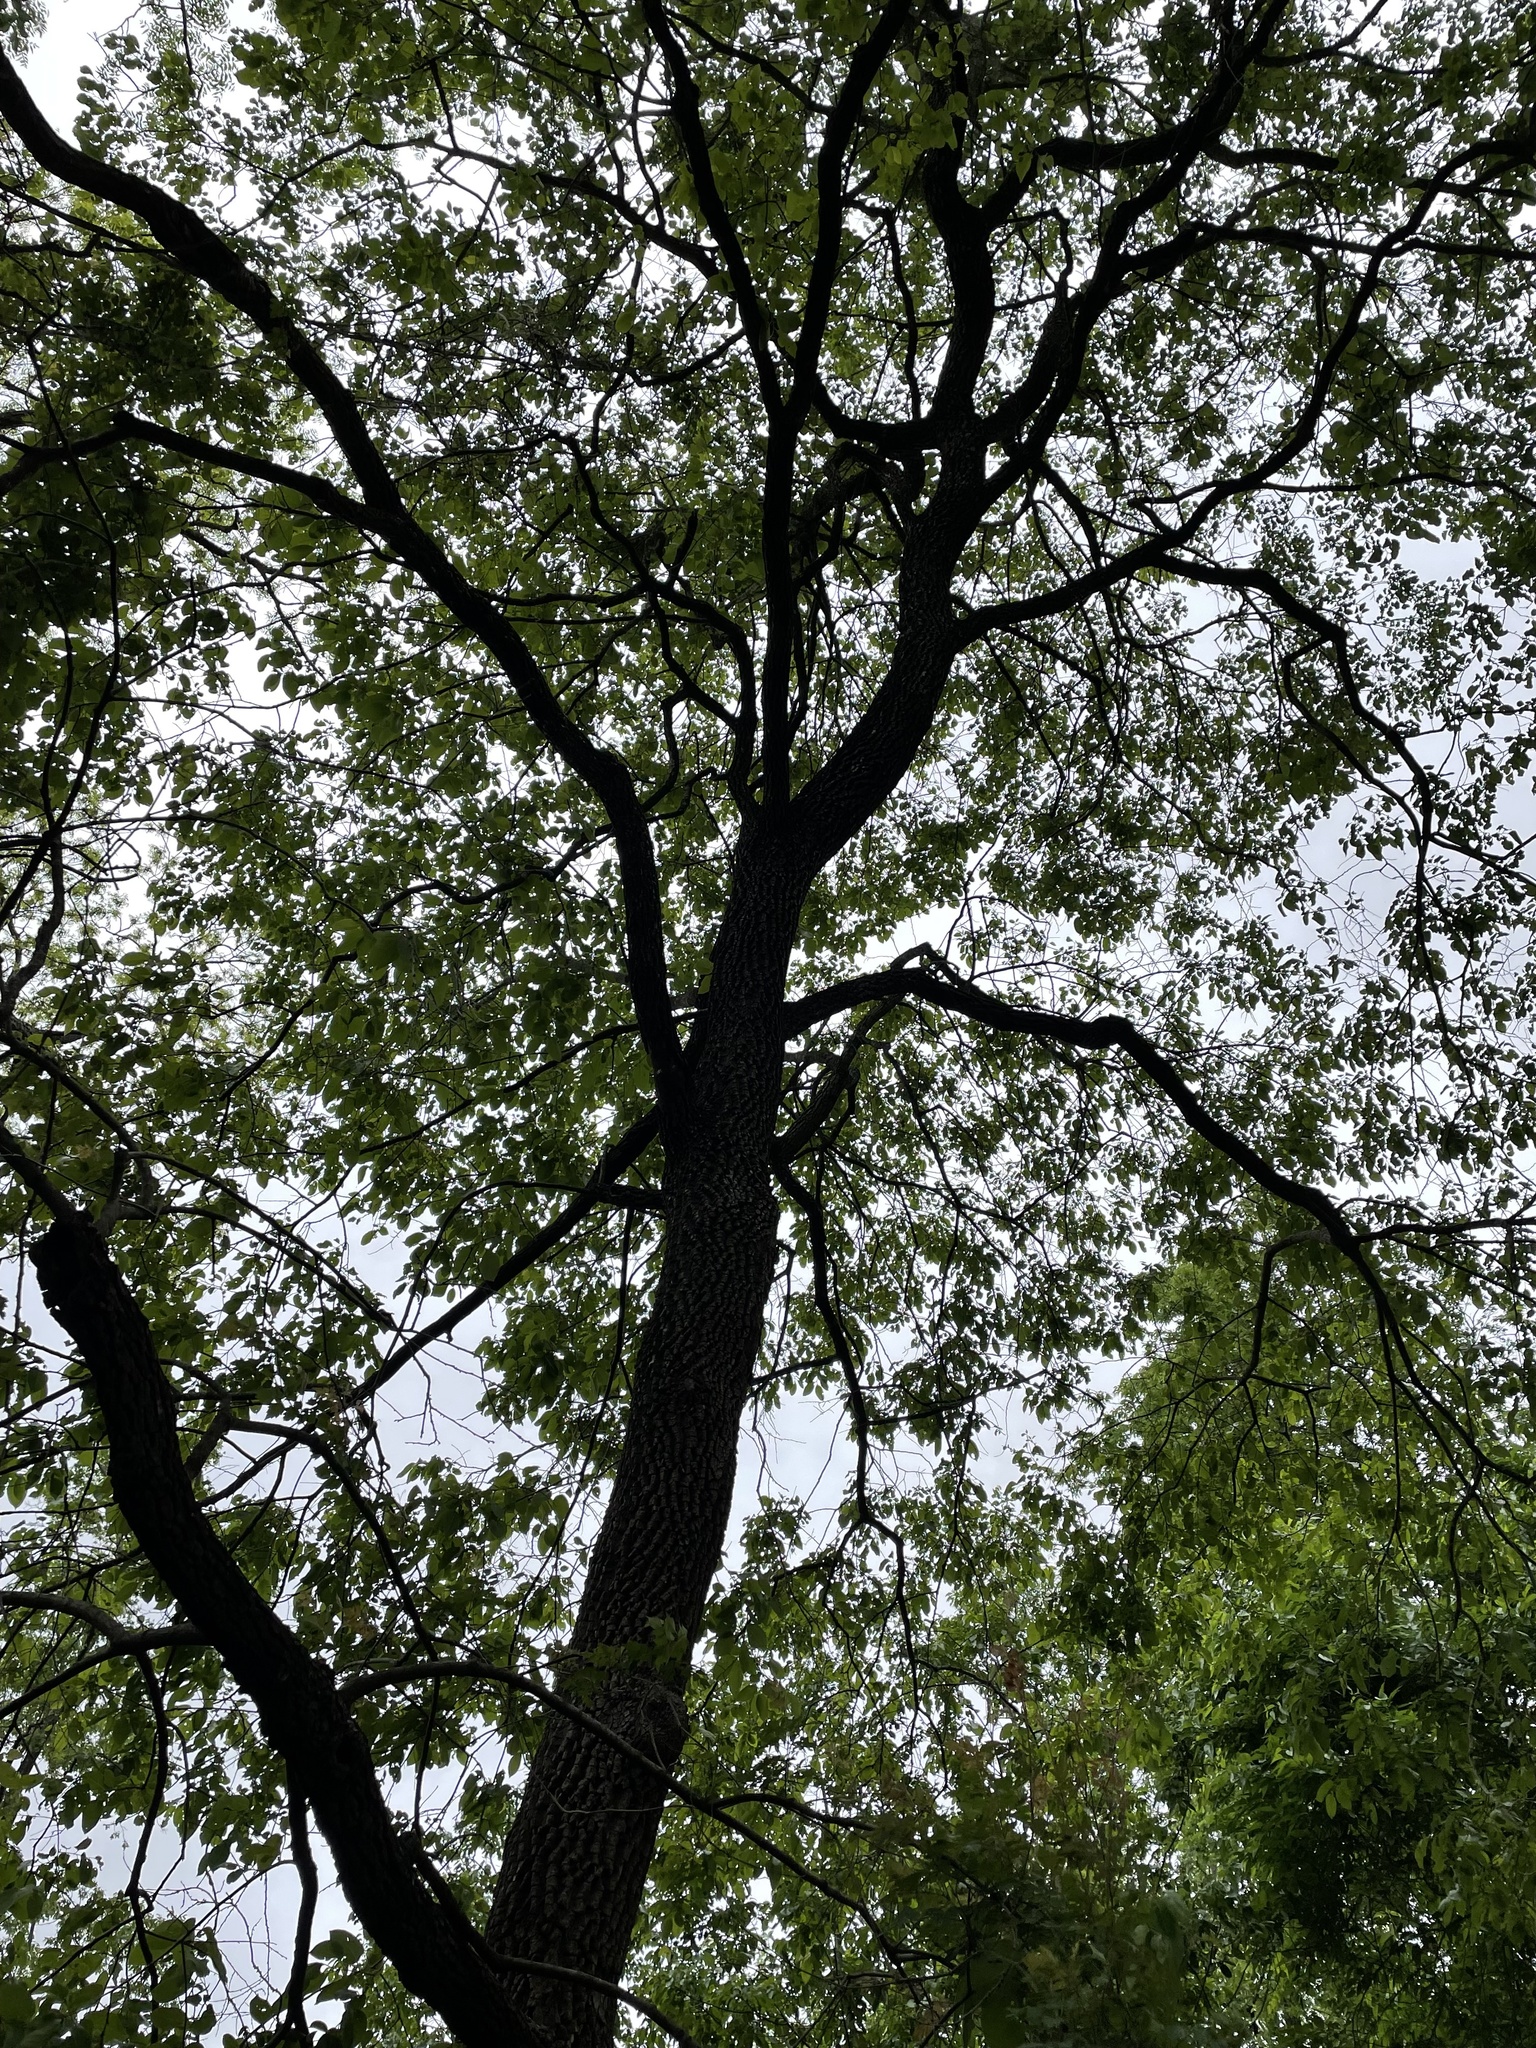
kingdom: Plantae
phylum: Tracheophyta
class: Magnoliopsida
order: Ericales
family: Ebenaceae
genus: Diospyros
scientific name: Diospyros virginiana
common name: Persimmon
